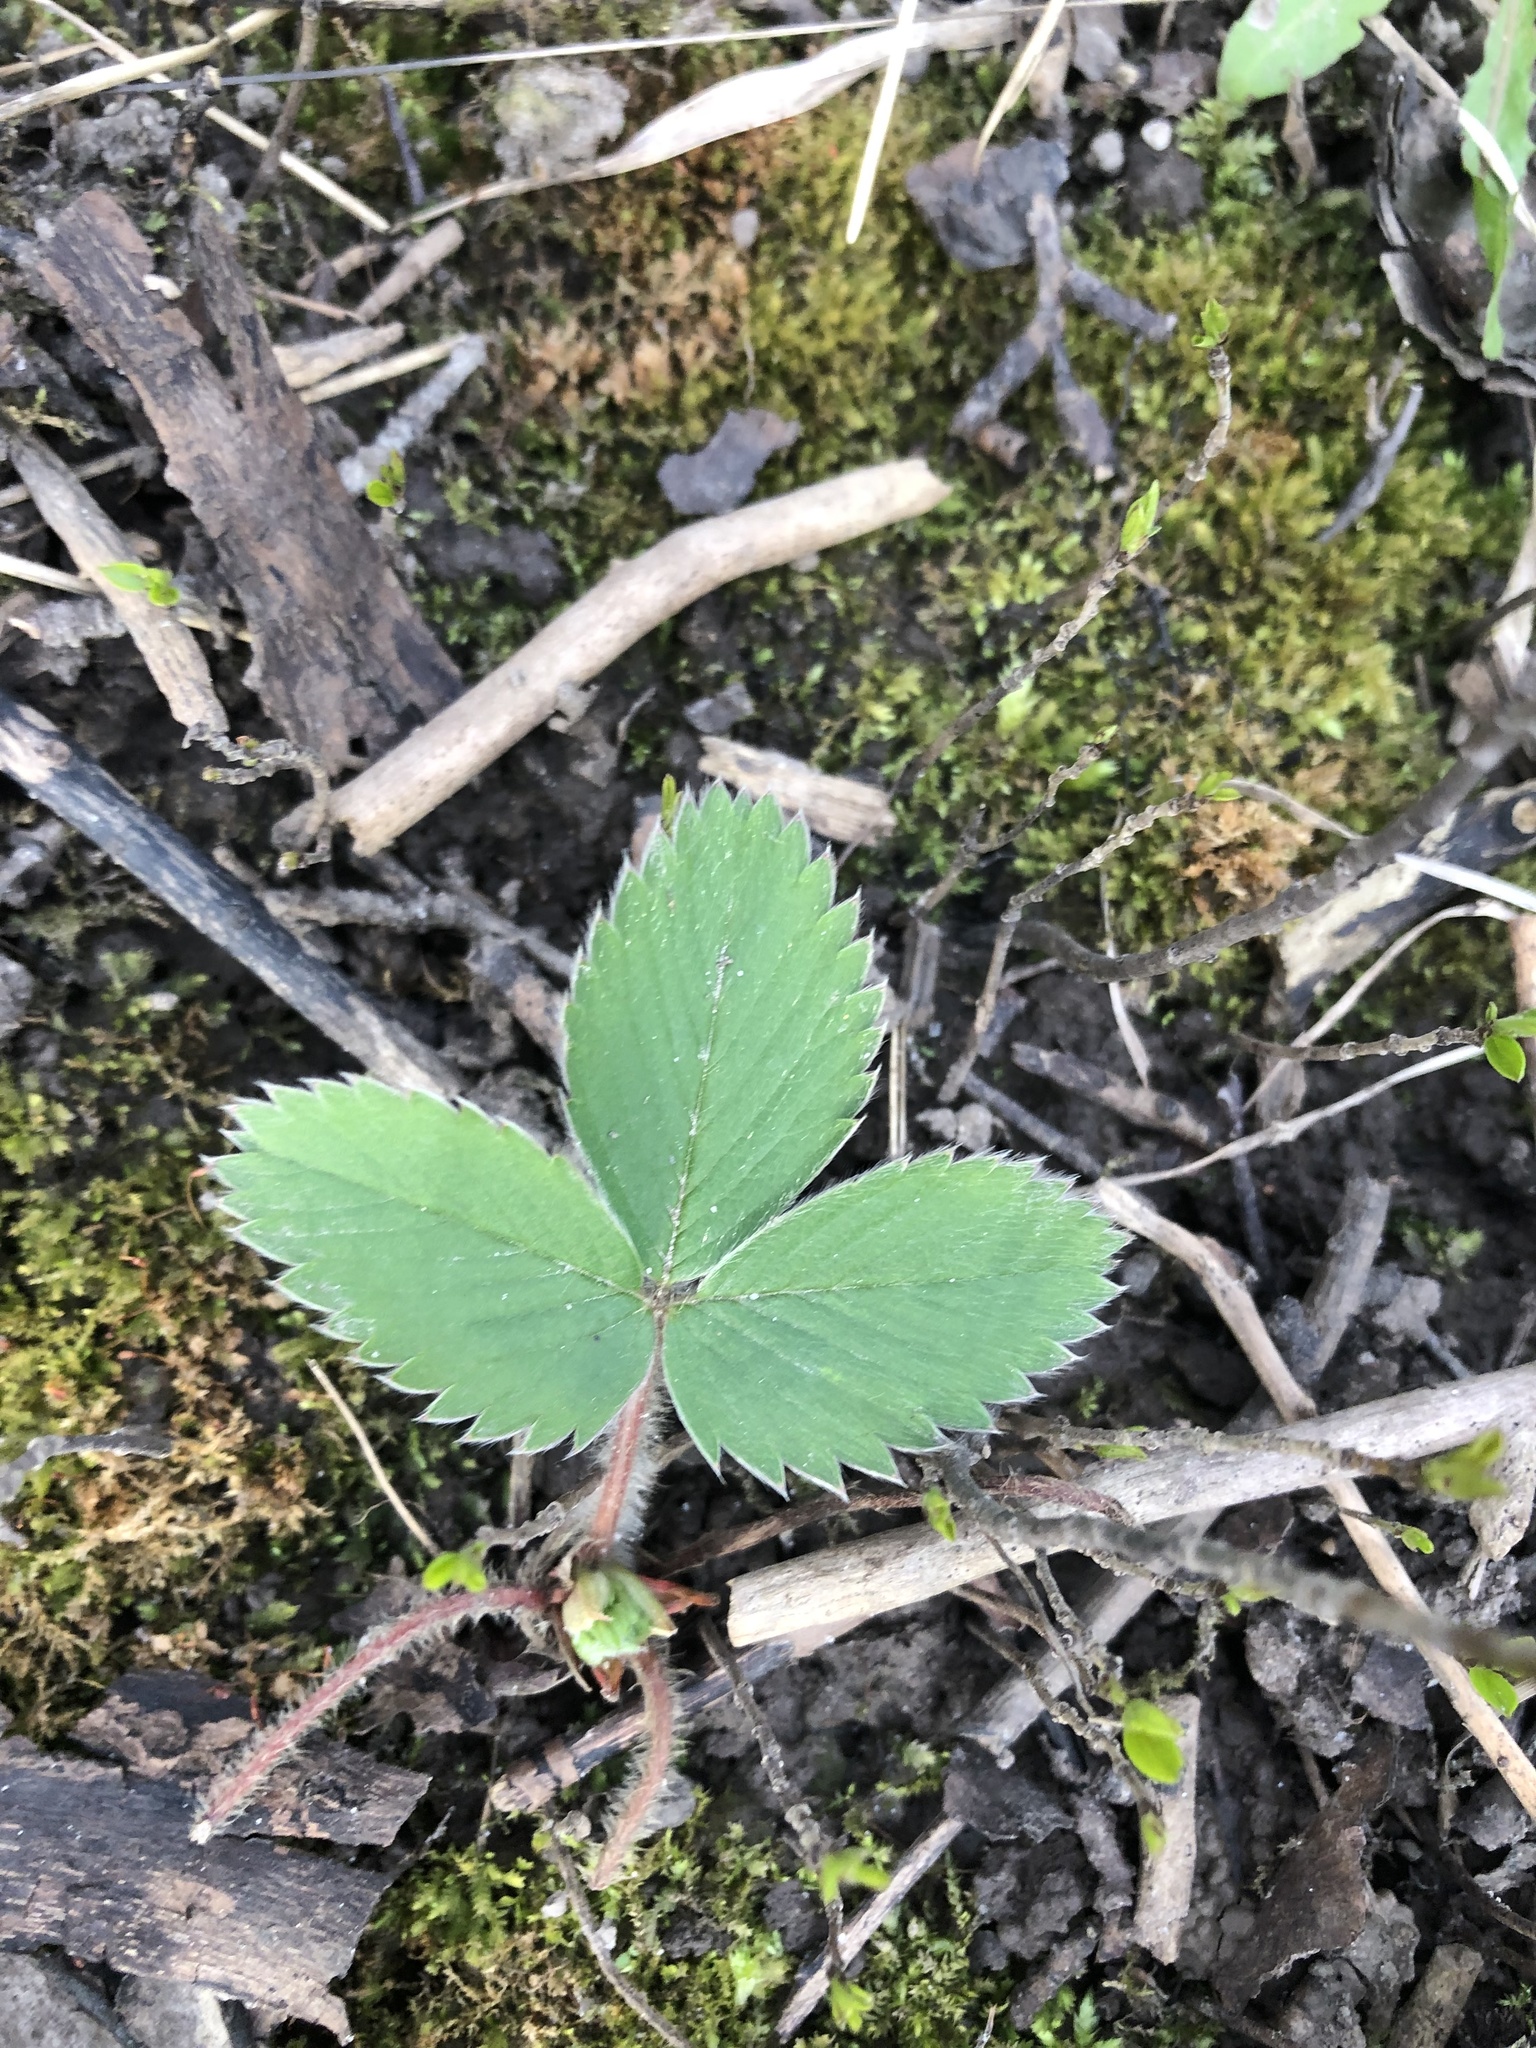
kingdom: Plantae
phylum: Tracheophyta
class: Magnoliopsida
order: Rosales
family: Rosaceae
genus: Fragaria
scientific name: Fragaria virginiana
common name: Thickleaved wild strawberry
